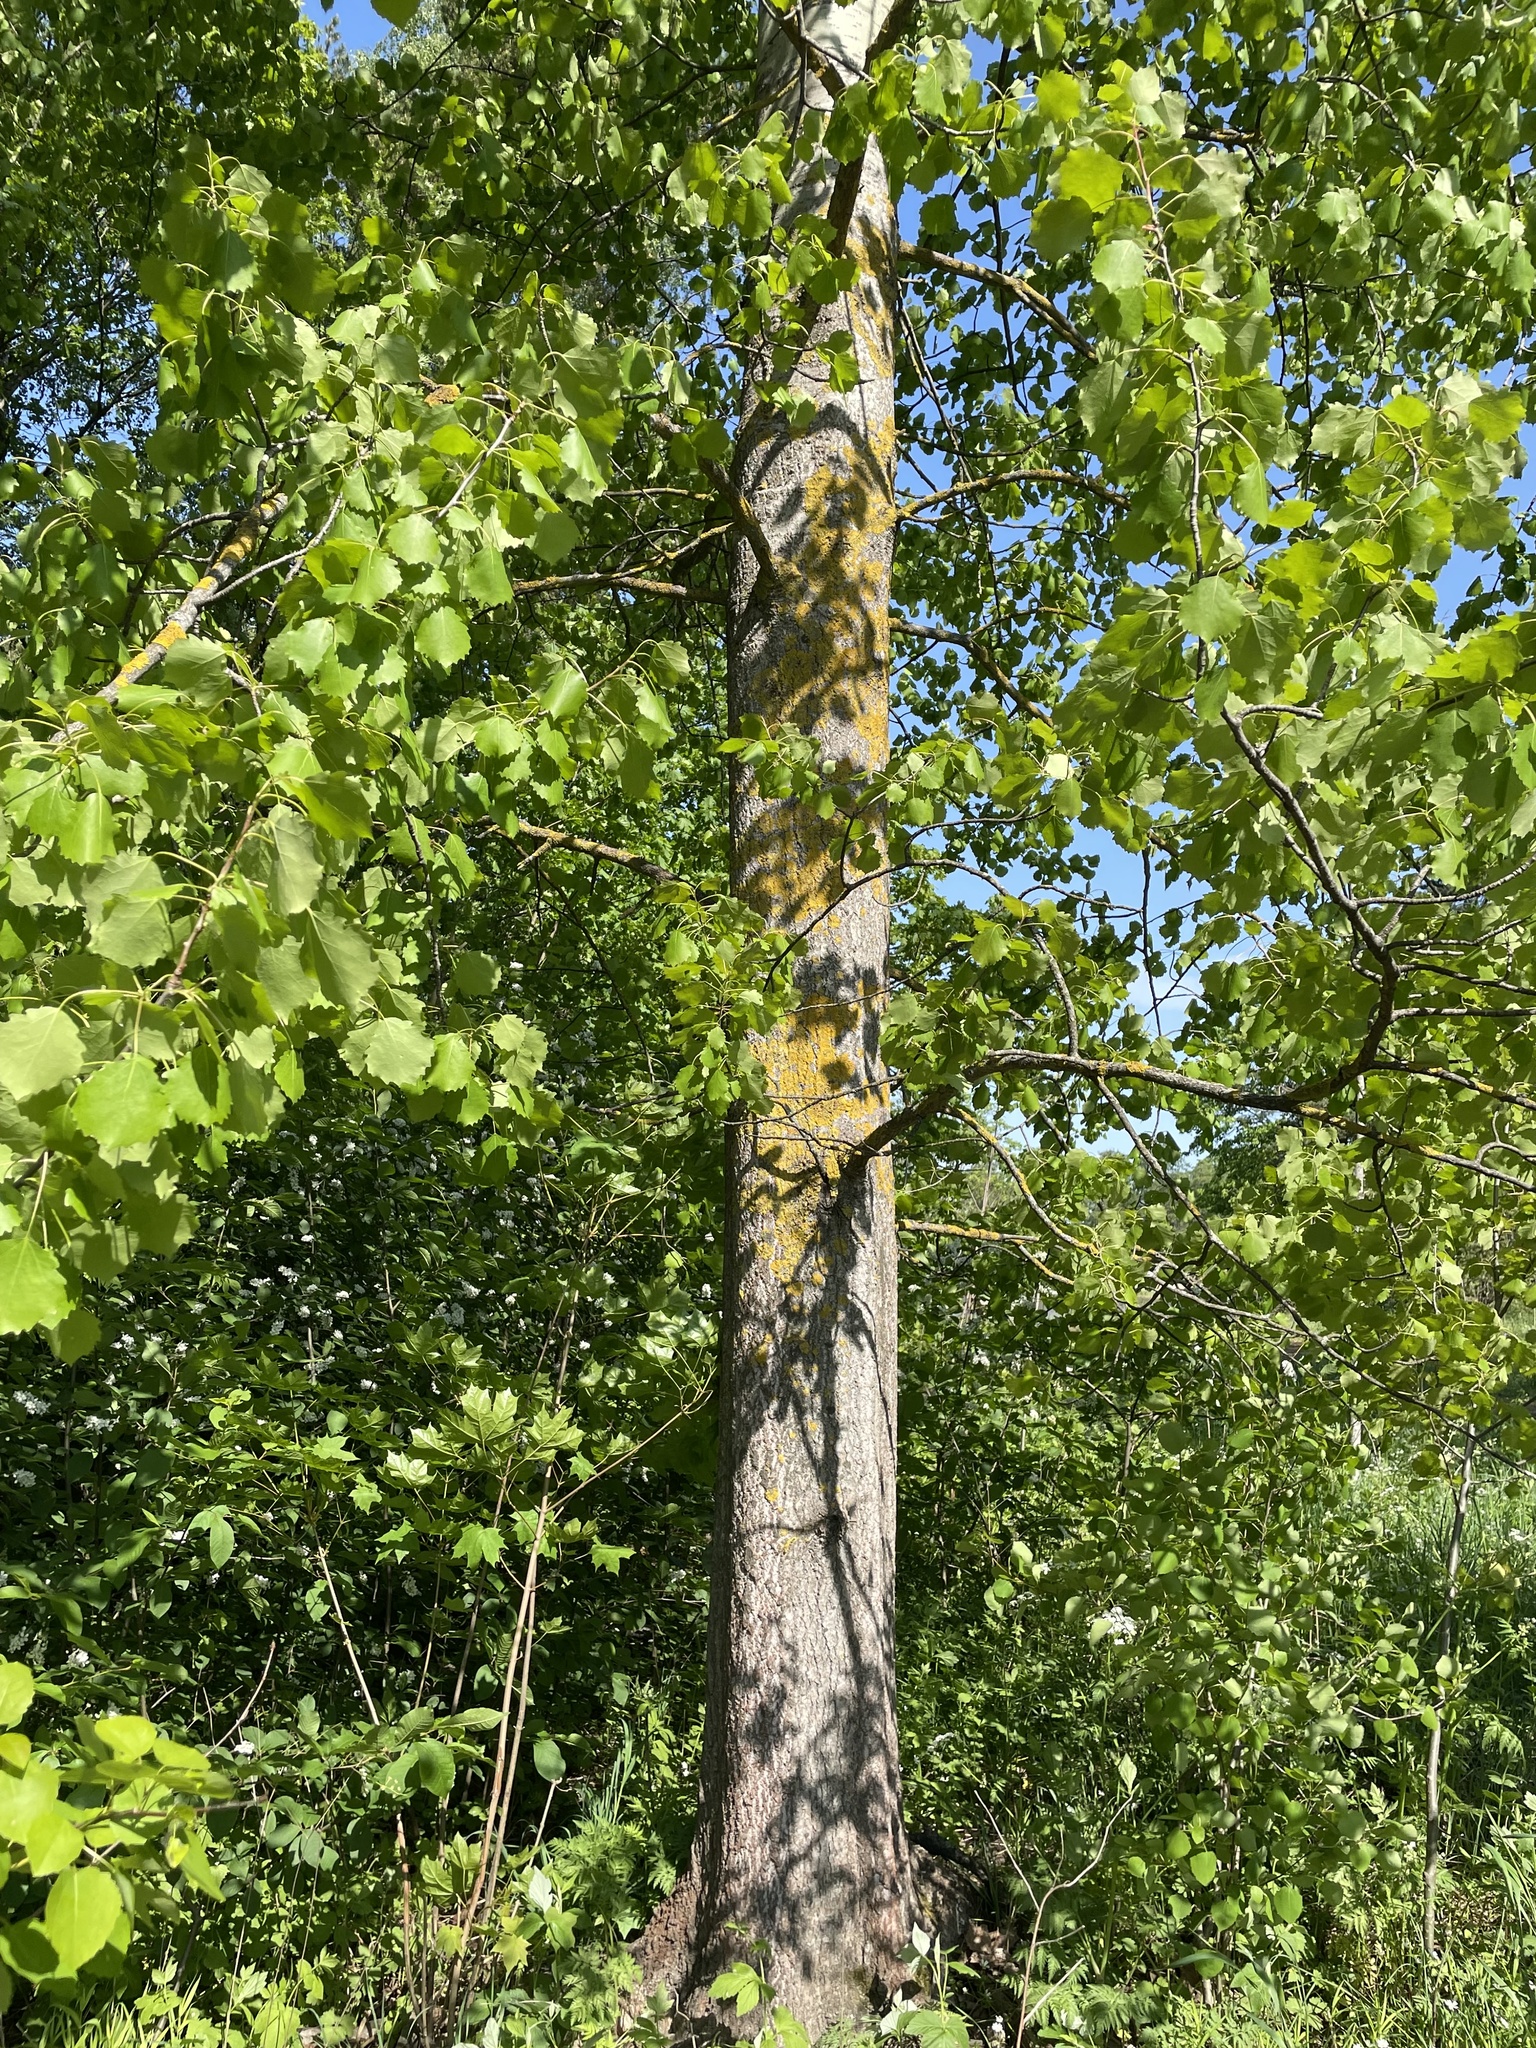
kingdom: Plantae
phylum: Tracheophyta
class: Magnoliopsida
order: Malpighiales
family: Salicaceae
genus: Populus
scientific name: Populus tremula
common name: European aspen
